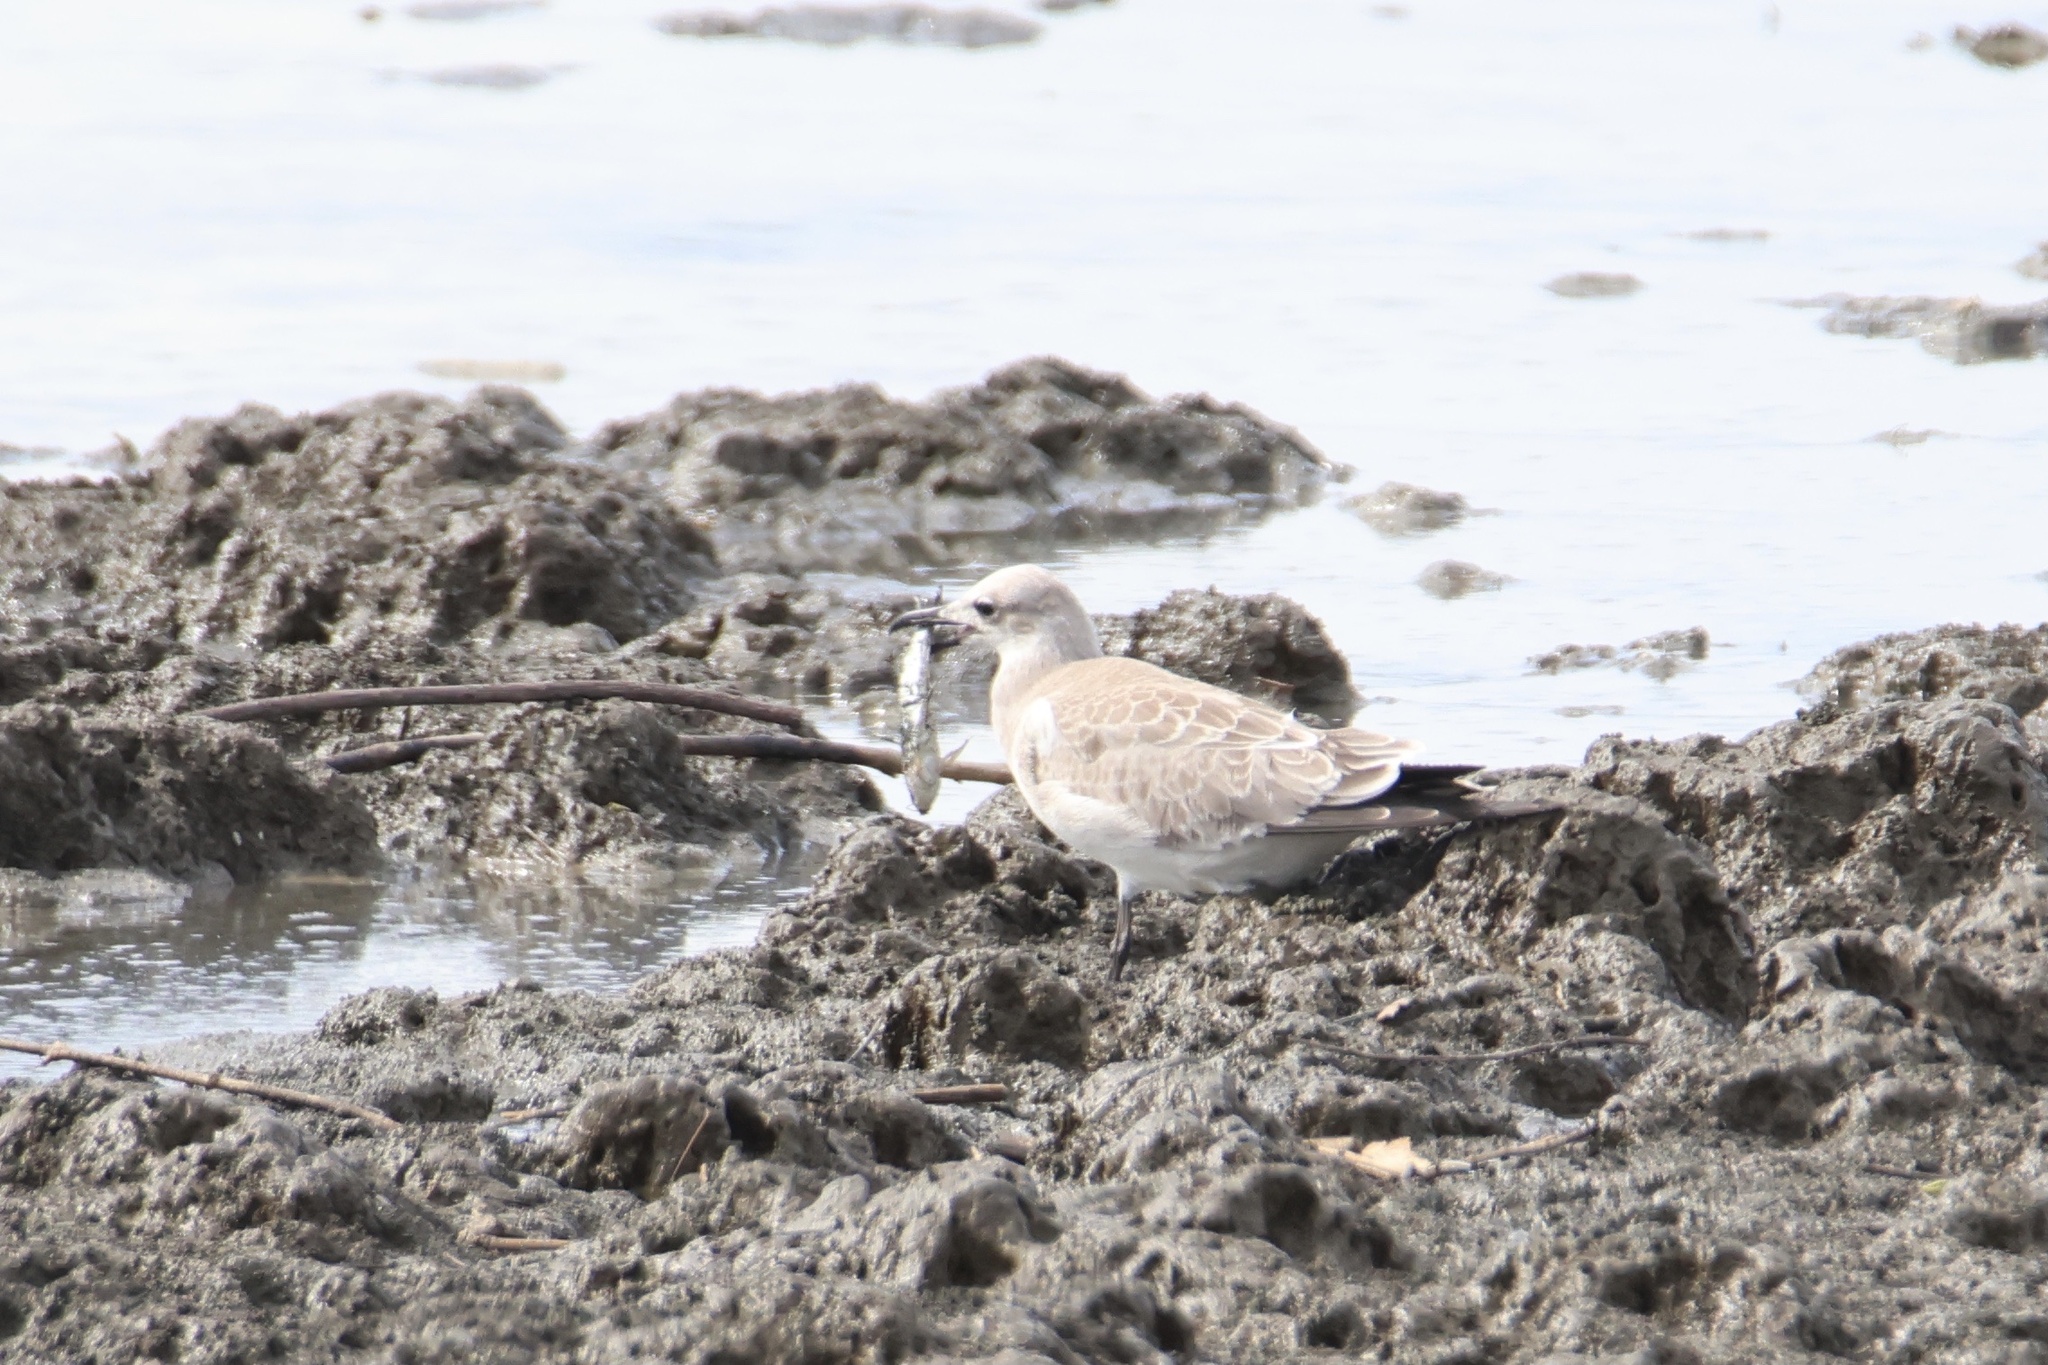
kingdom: Animalia
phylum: Chordata
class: Aves
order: Charadriiformes
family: Laridae
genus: Leucophaeus
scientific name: Leucophaeus atricilla
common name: Laughing gull
